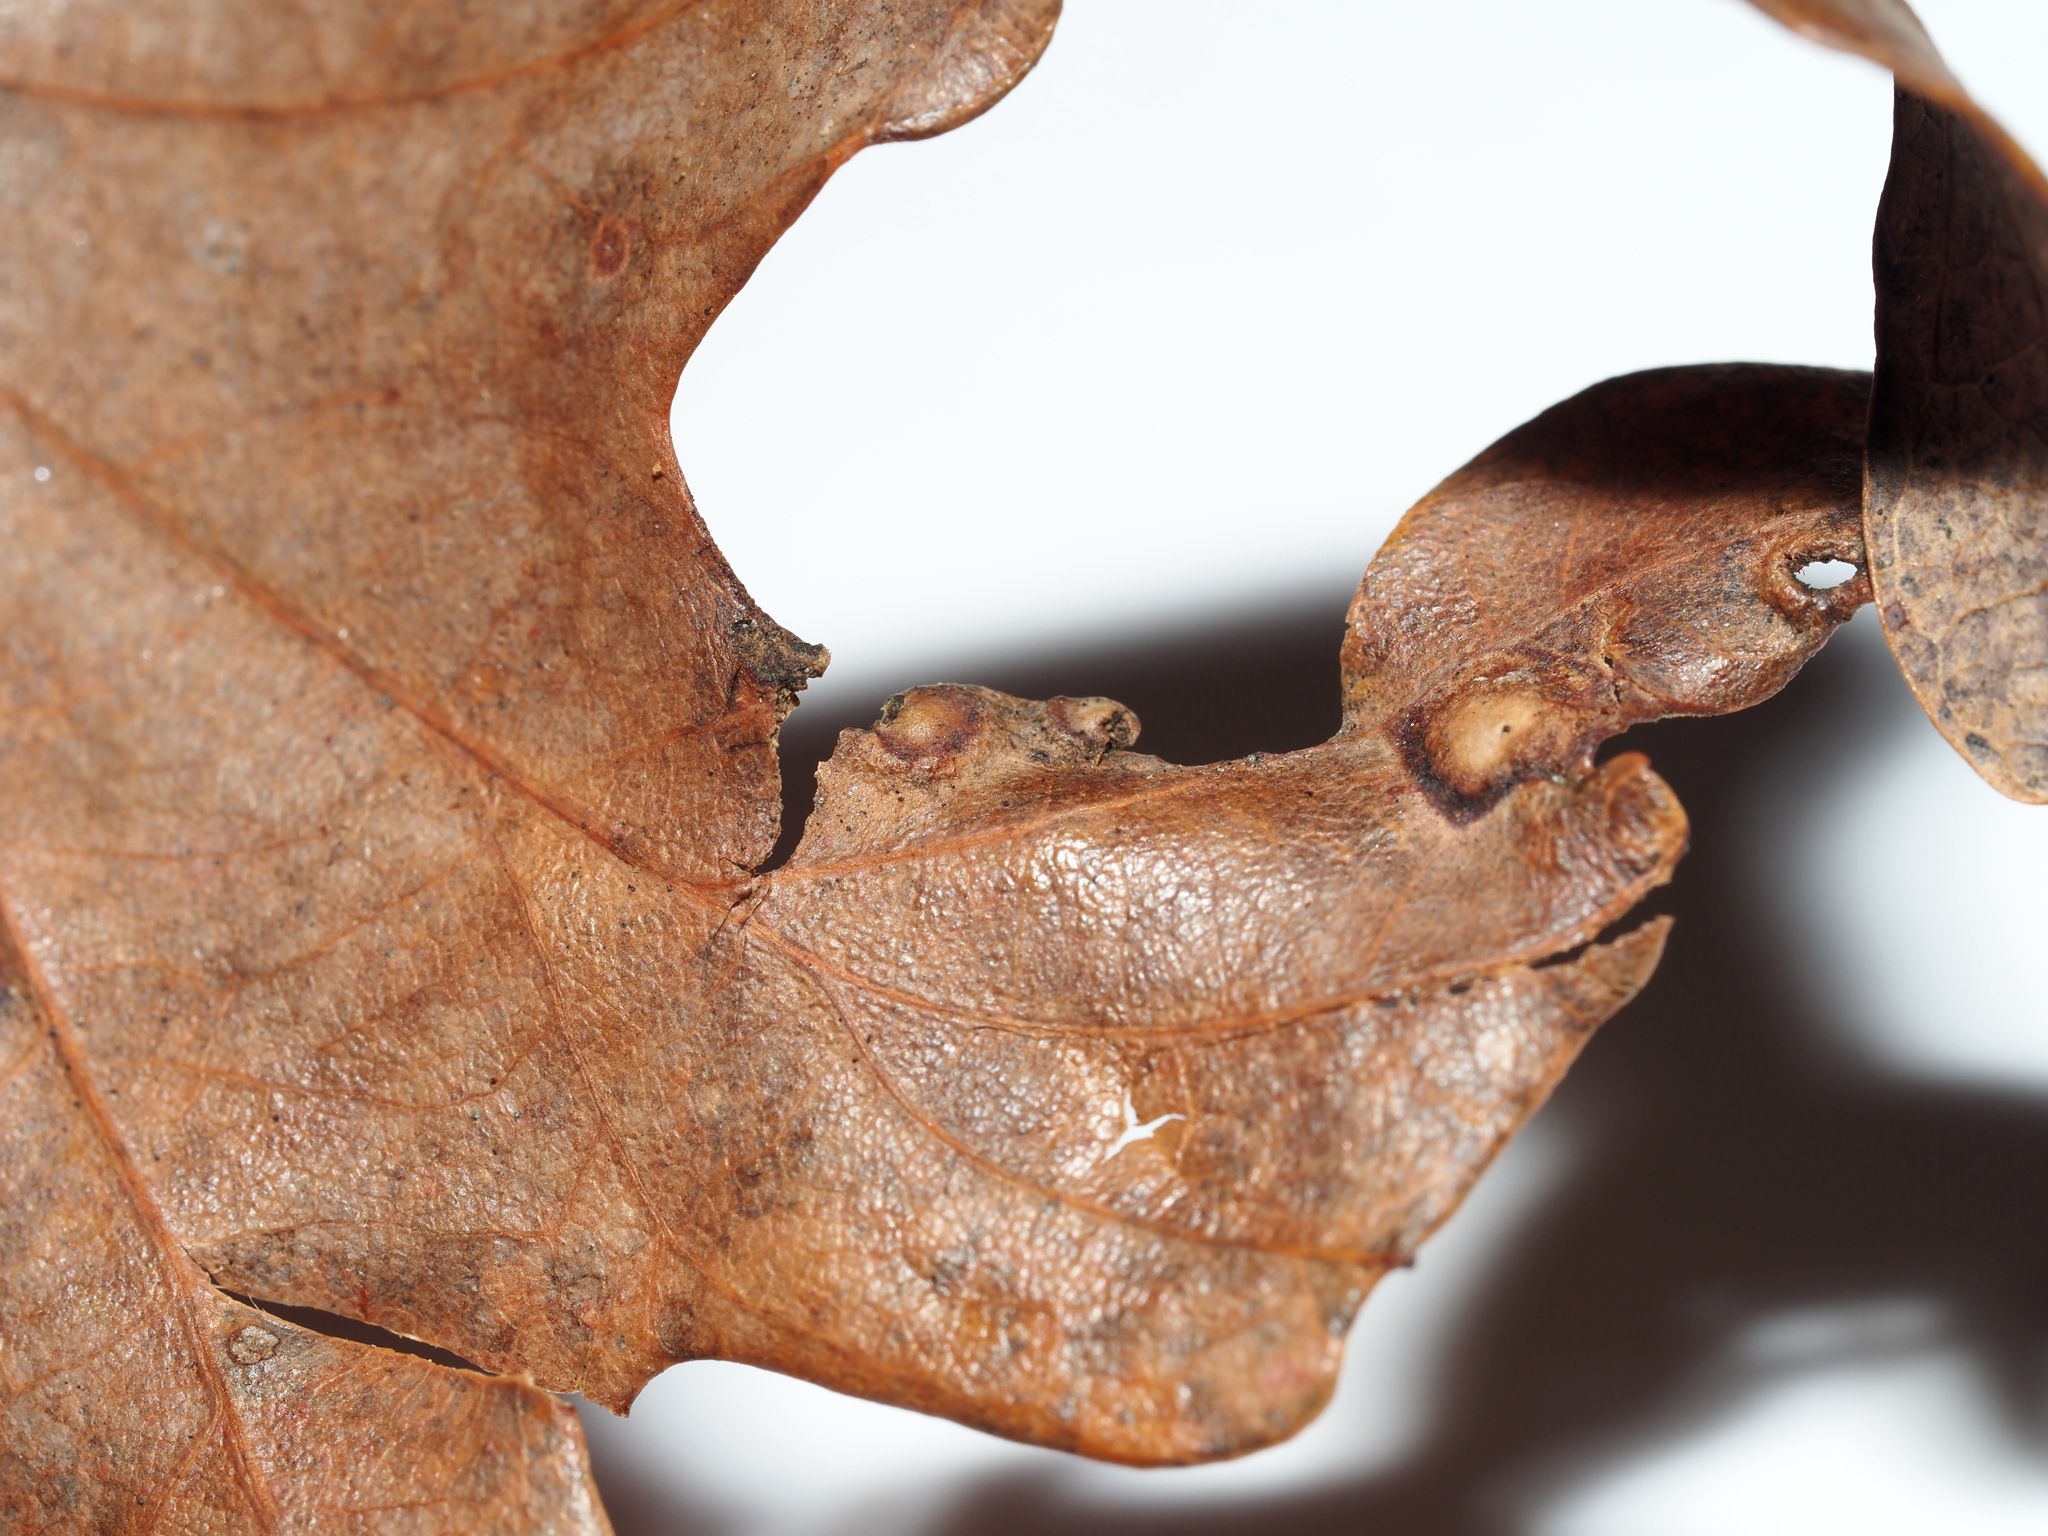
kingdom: Animalia
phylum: Arthropoda
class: Insecta
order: Hymenoptera
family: Cynipidae
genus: Callirhytis
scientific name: Callirhytis
